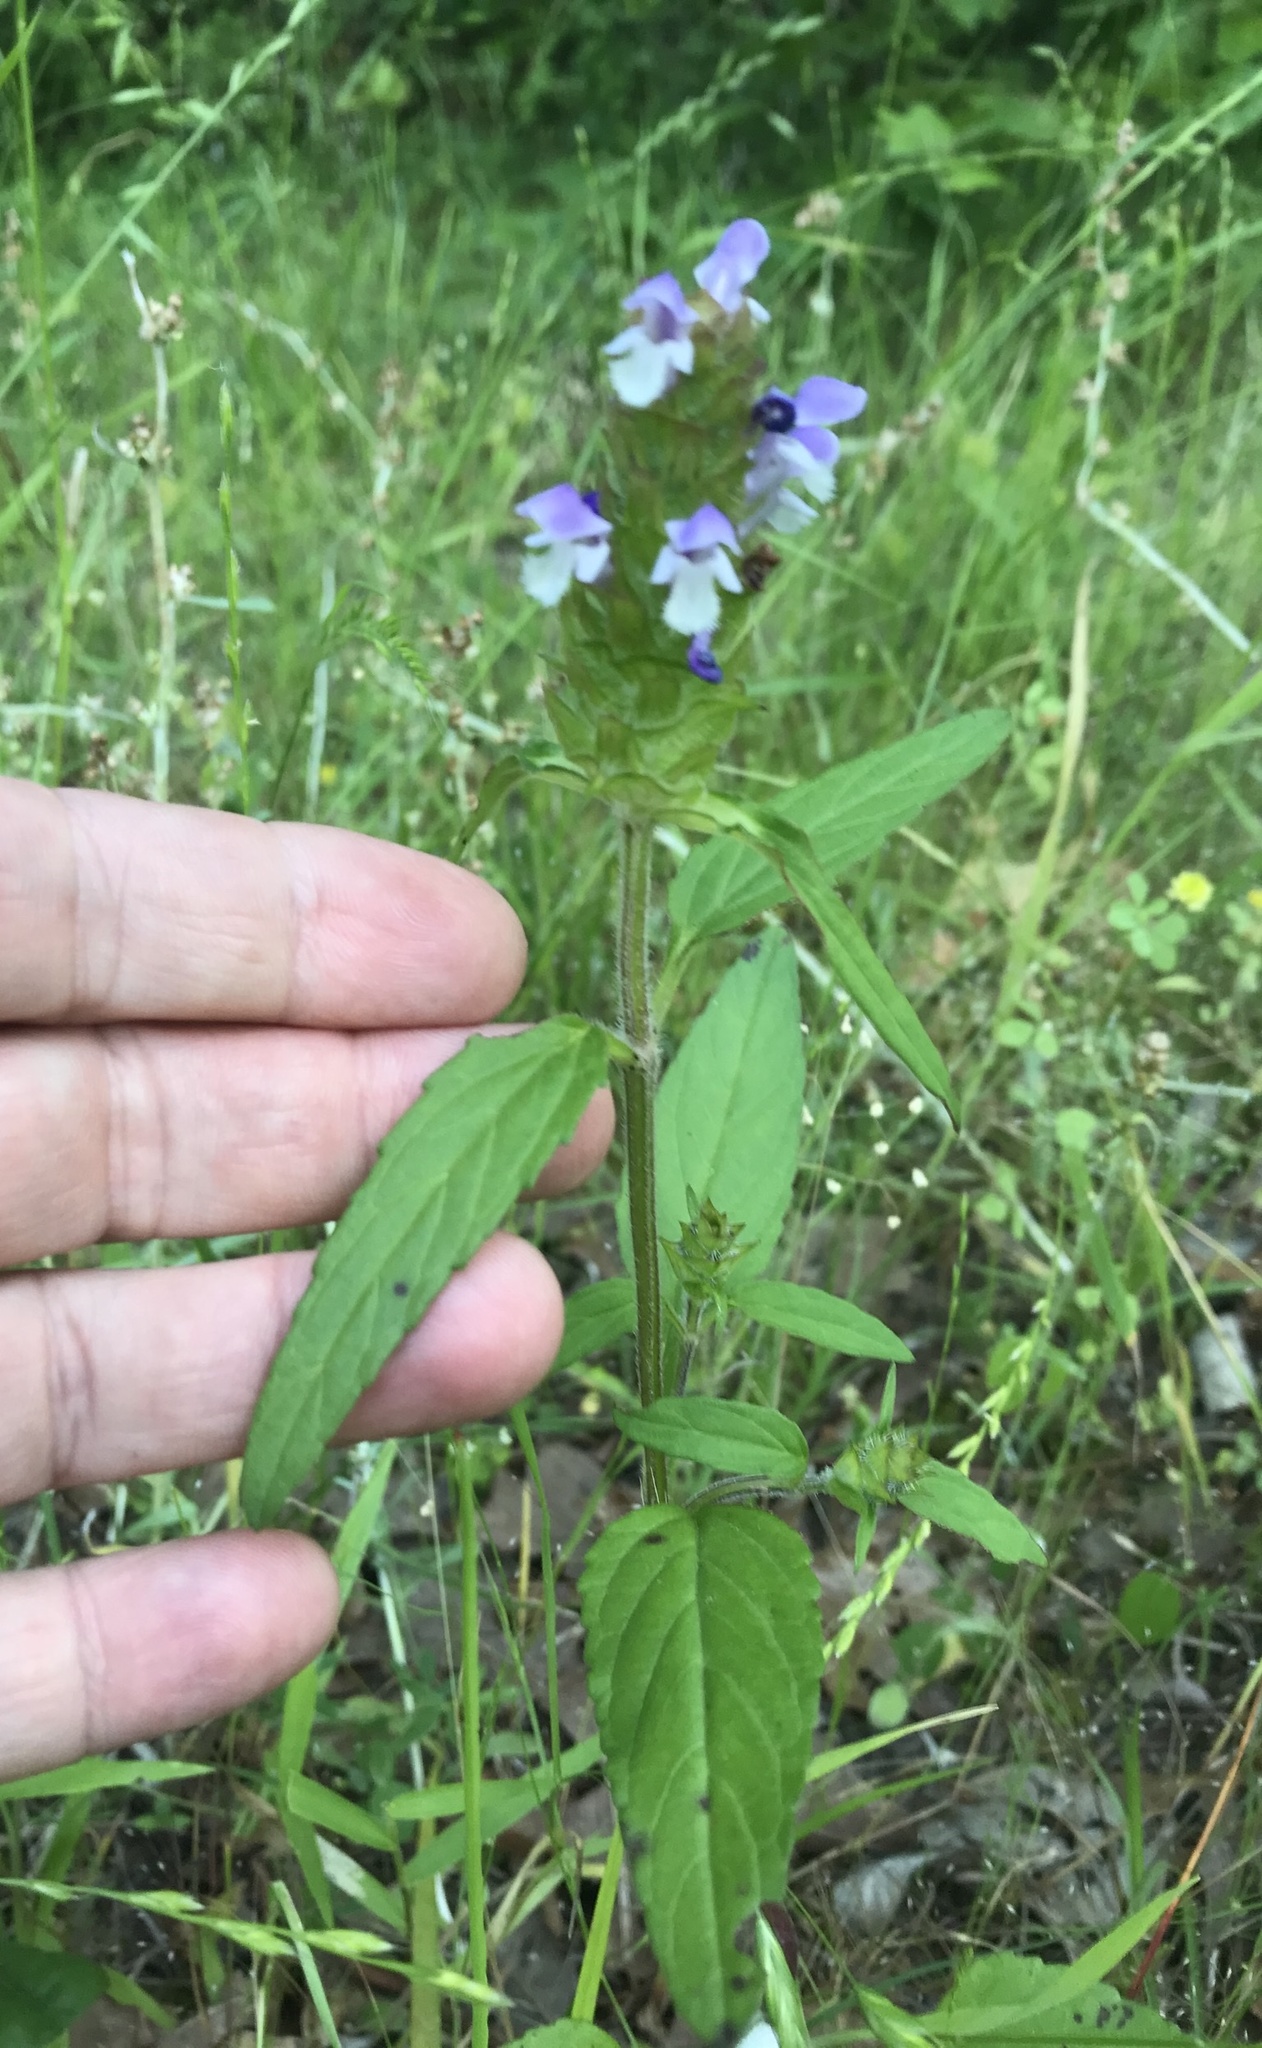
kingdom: Plantae
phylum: Tracheophyta
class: Magnoliopsida
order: Lamiales
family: Lamiaceae
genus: Prunella
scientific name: Prunella vulgaris
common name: Heal-all
